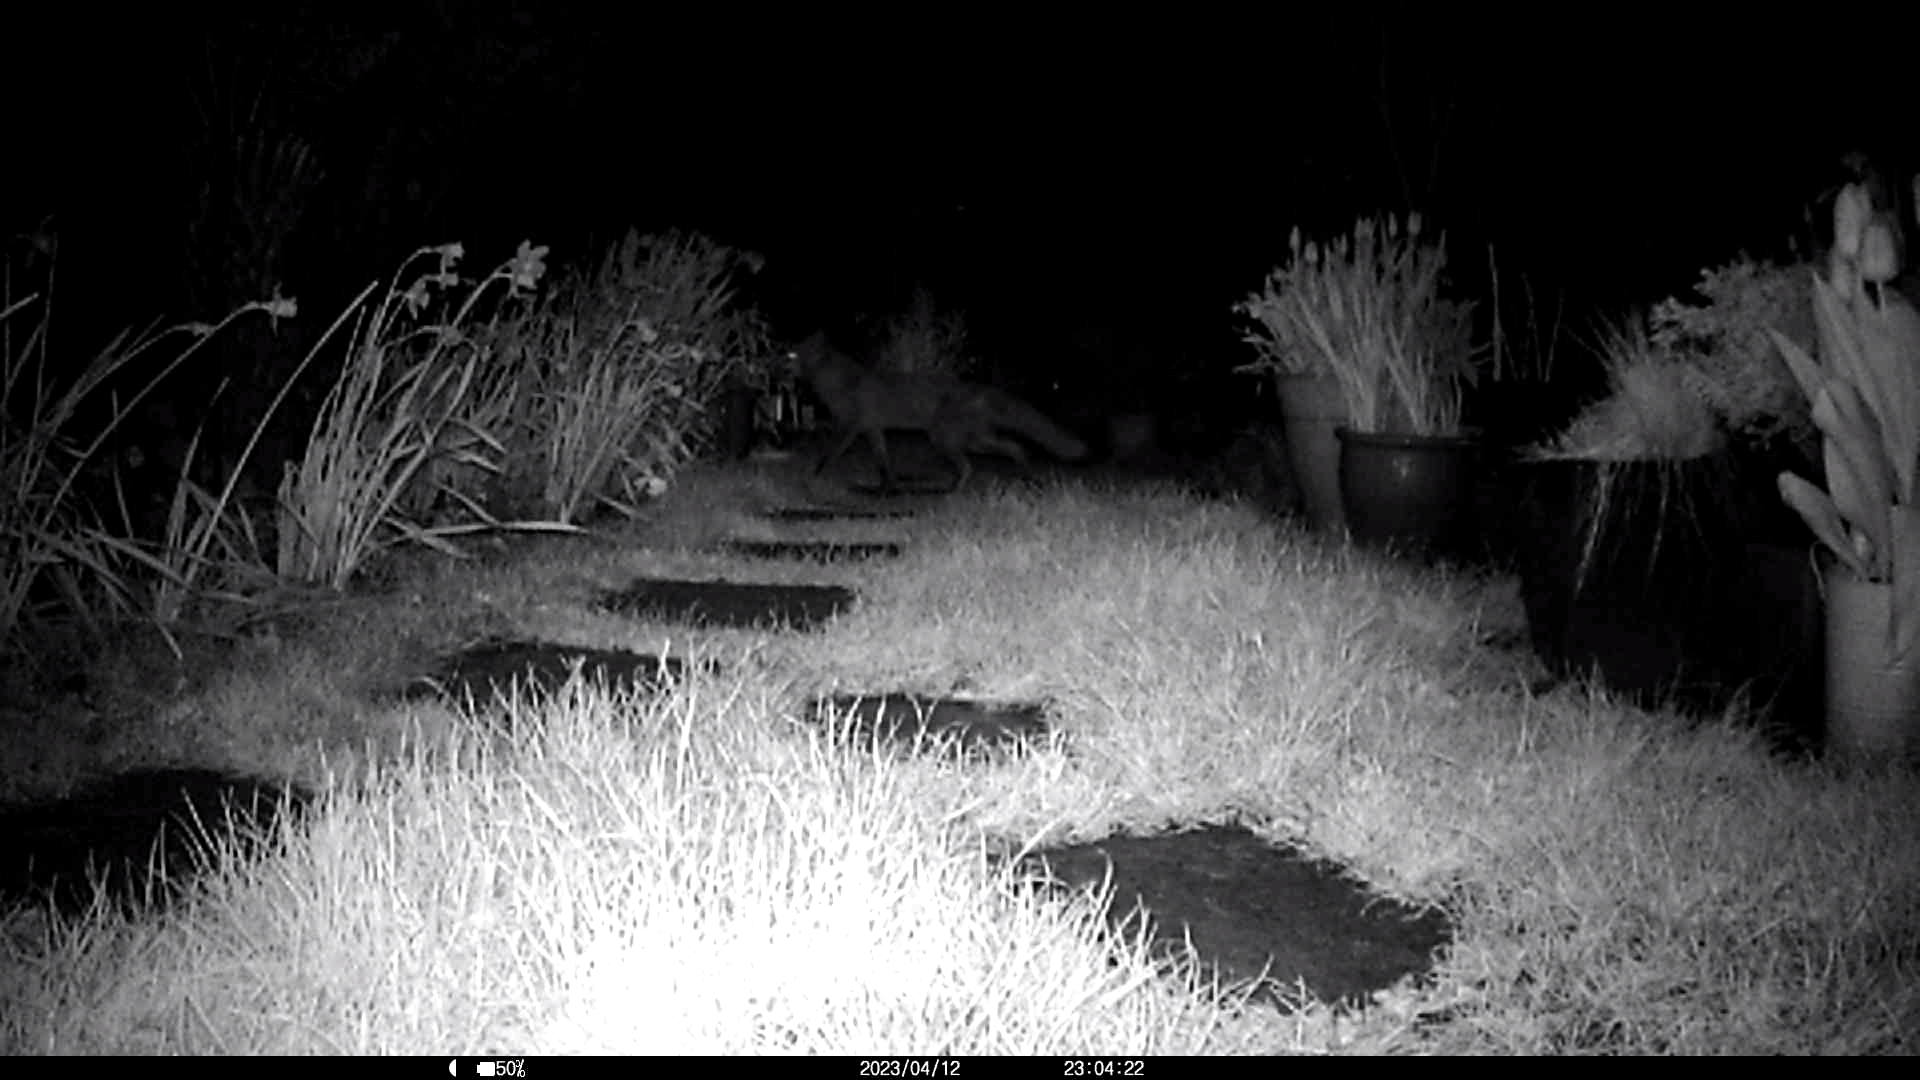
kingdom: Animalia
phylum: Chordata
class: Mammalia
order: Carnivora
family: Canidae
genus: Vulpes
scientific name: Vulpes vulpes
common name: Red fox
